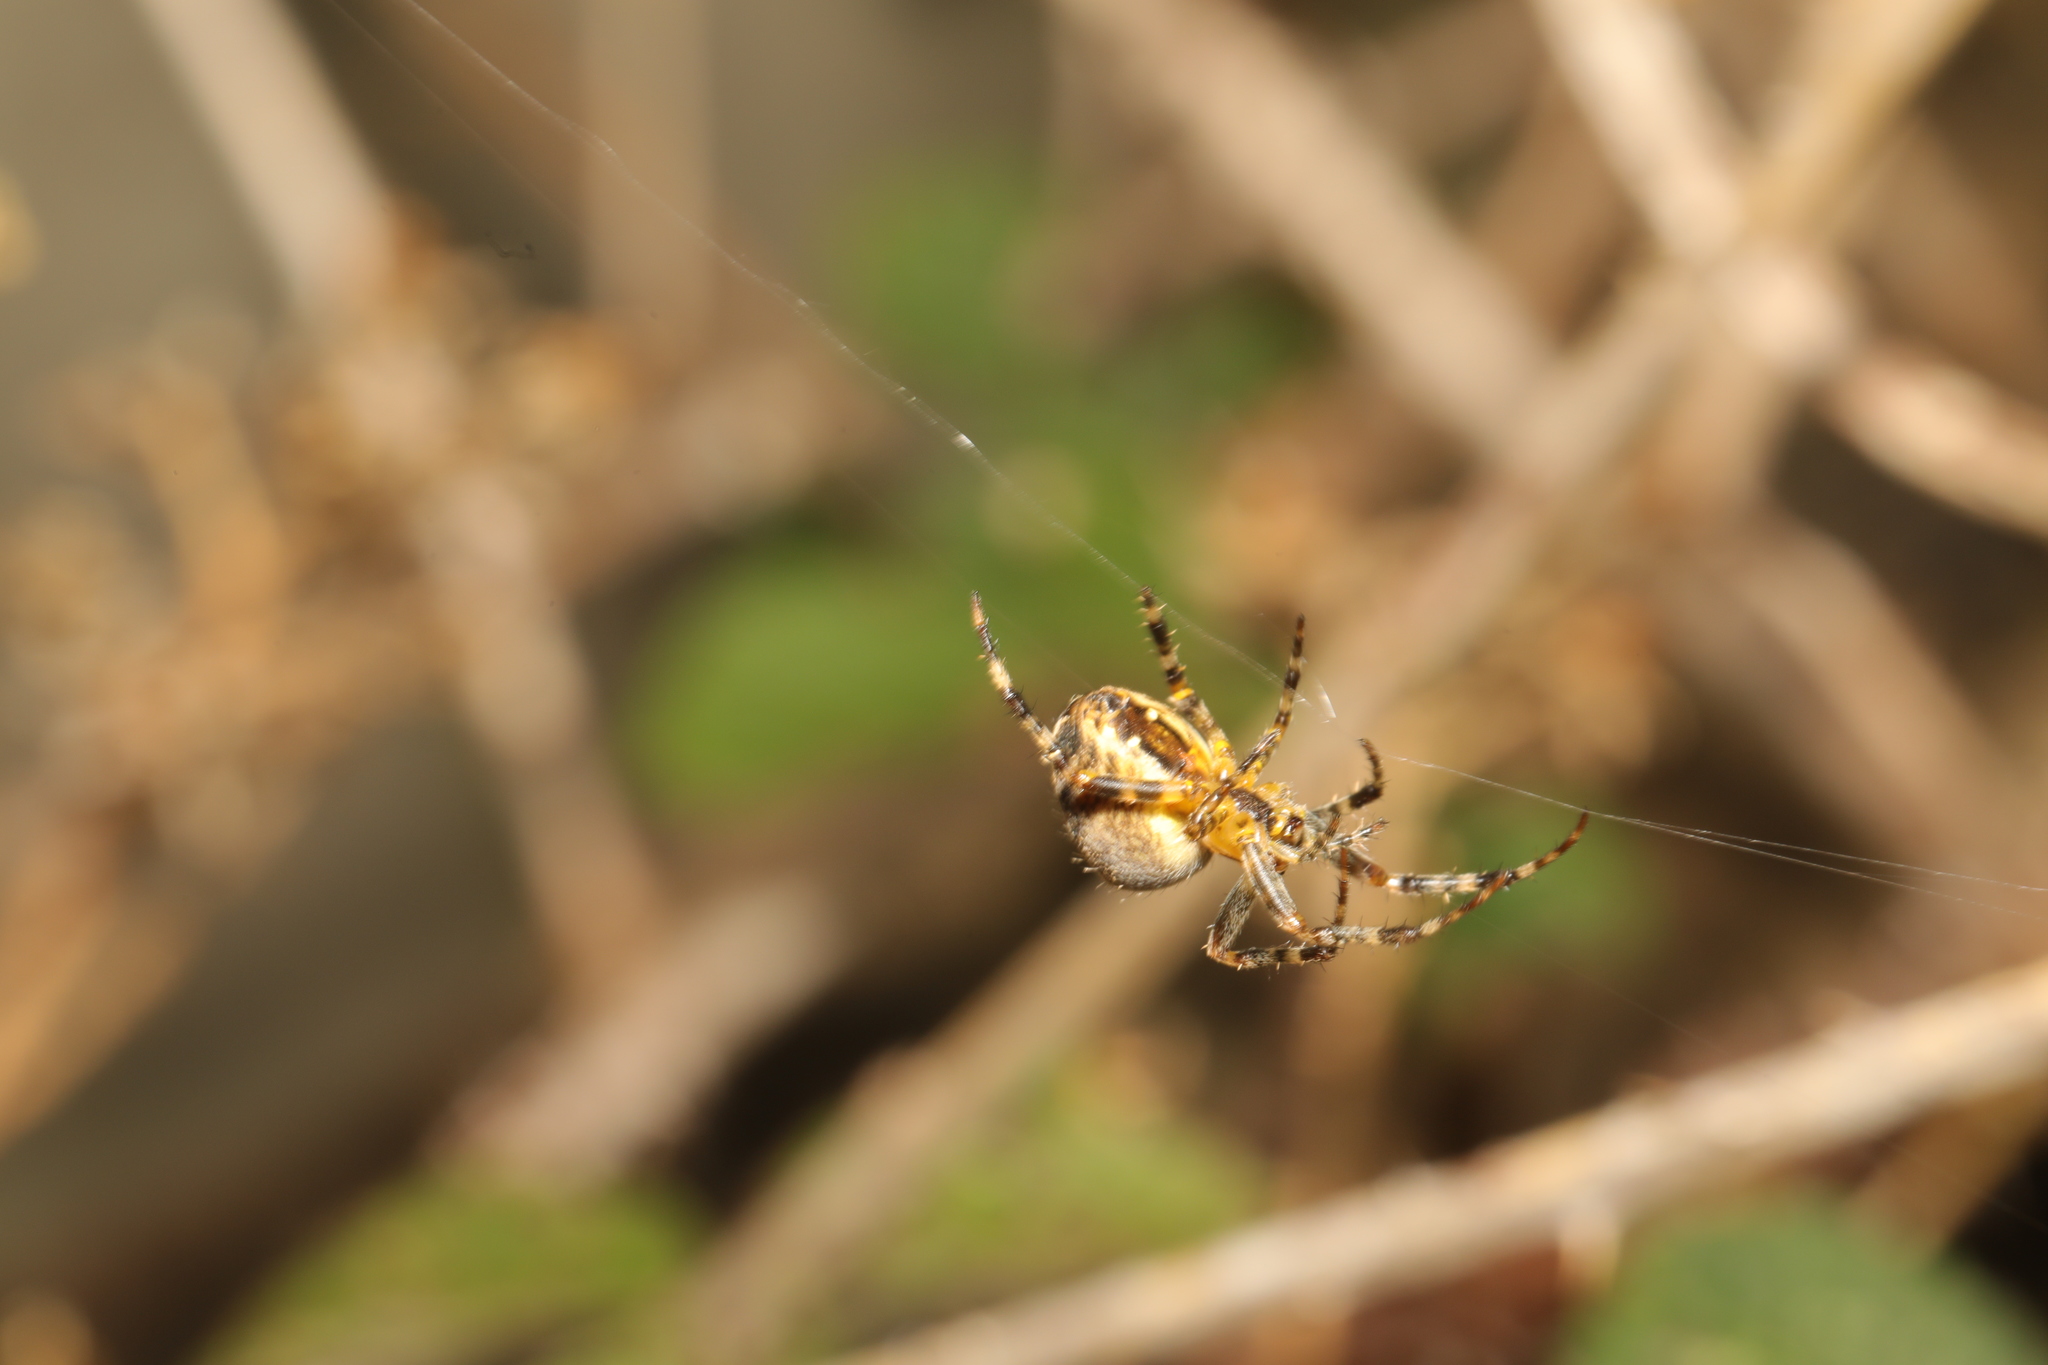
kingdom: Animalia
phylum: Arthropoda
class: Arachnida
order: Araneae
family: Araneidae
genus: Araneus
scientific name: Araneus diadematus
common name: Cross orbweaver
